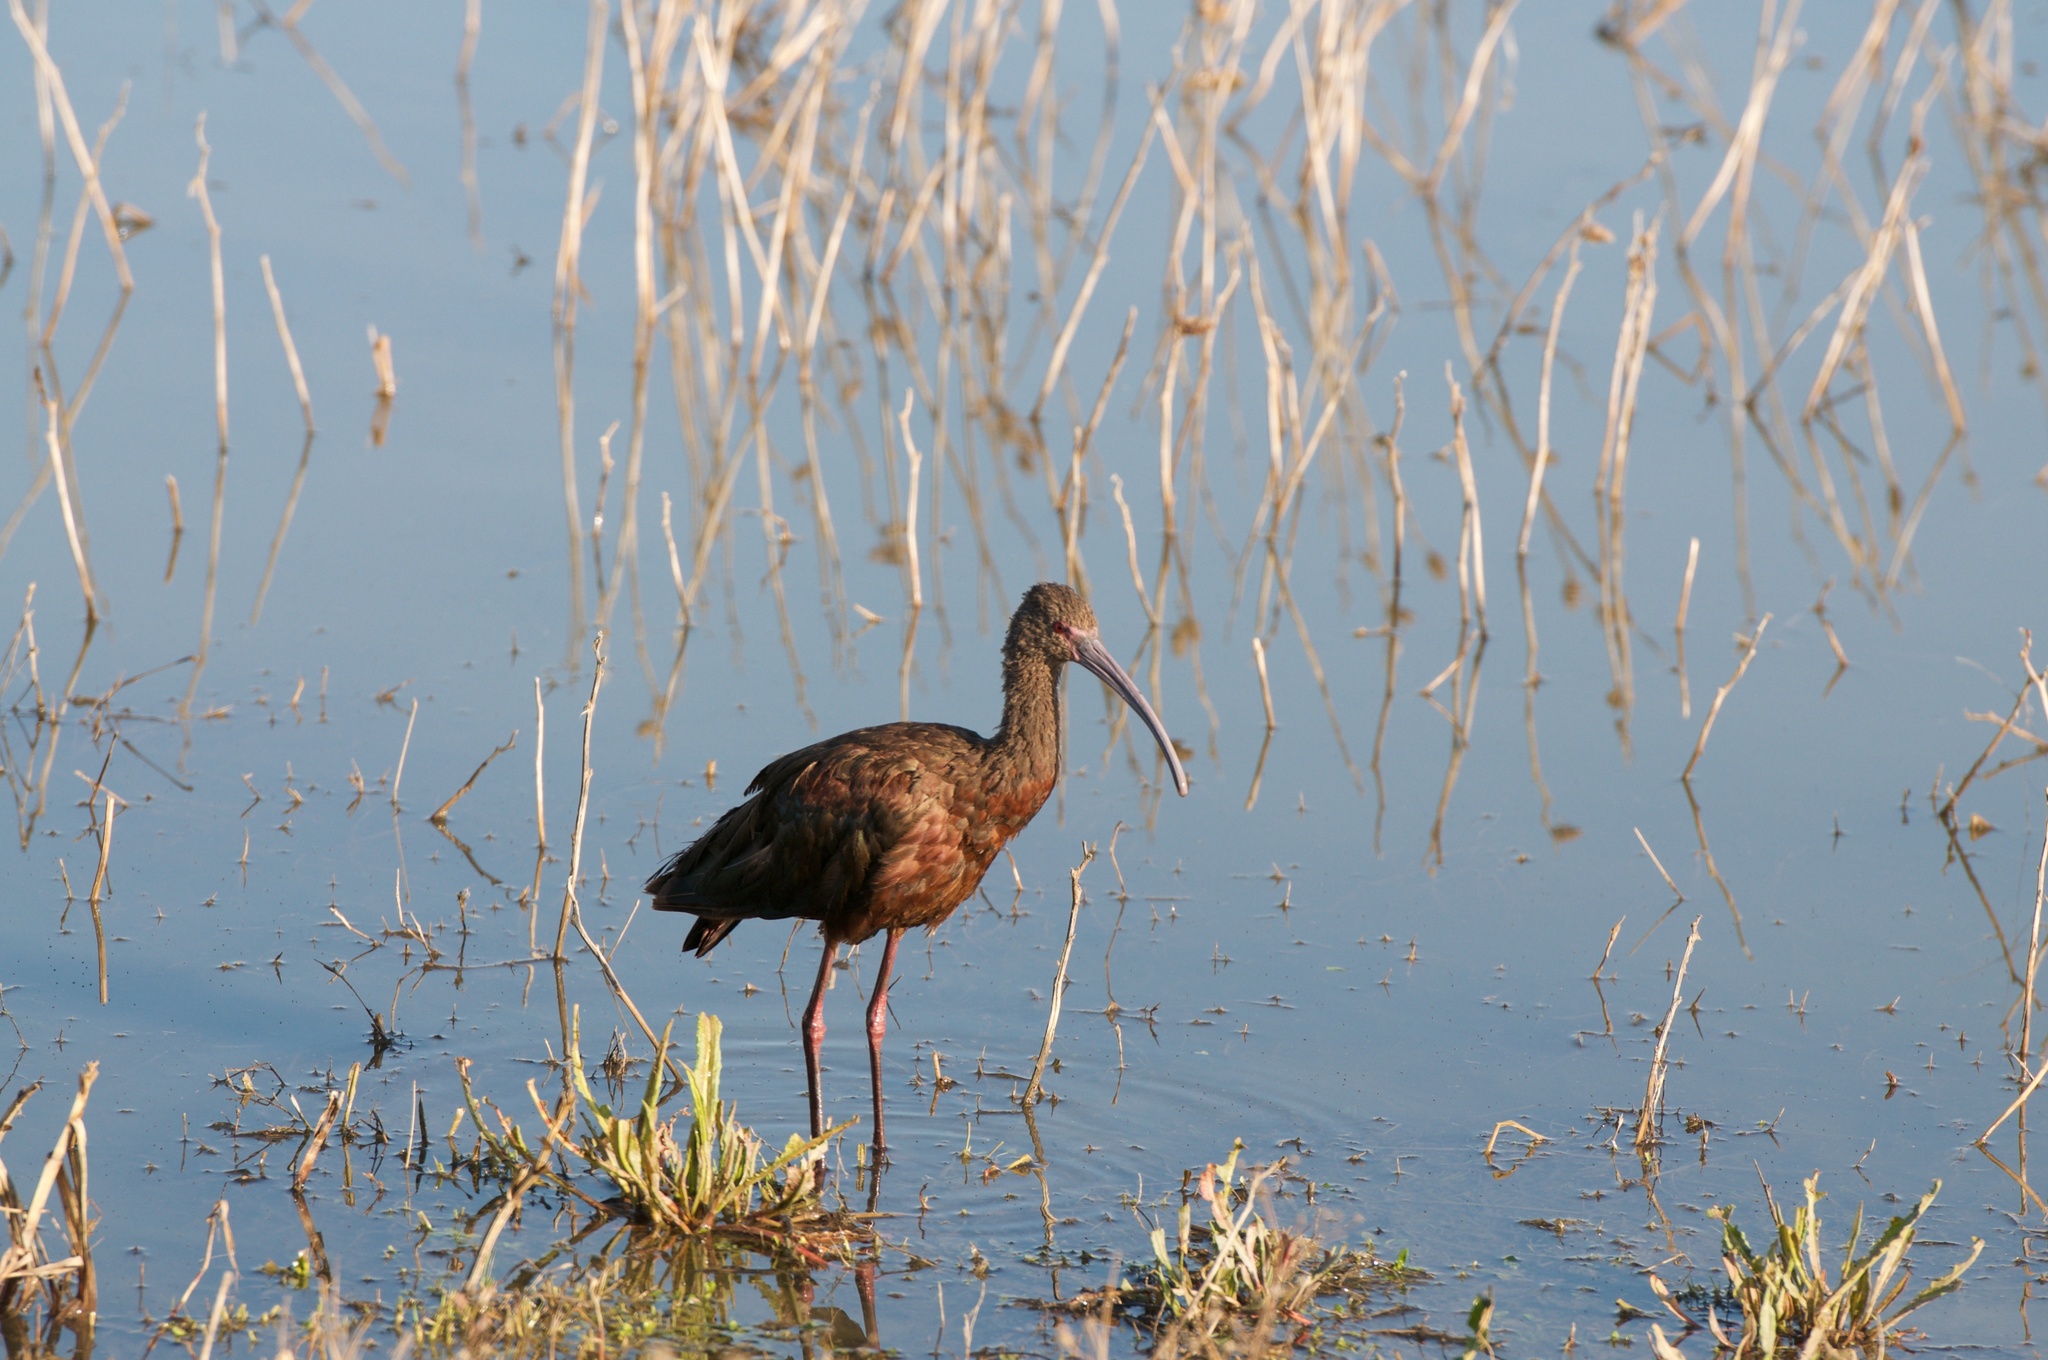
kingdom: Animalia
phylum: Chordata
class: Aves
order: Pelecaniformes
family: Threskiornithidae
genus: Plegadis
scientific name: Plegadis chihi
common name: White-faced ibis
